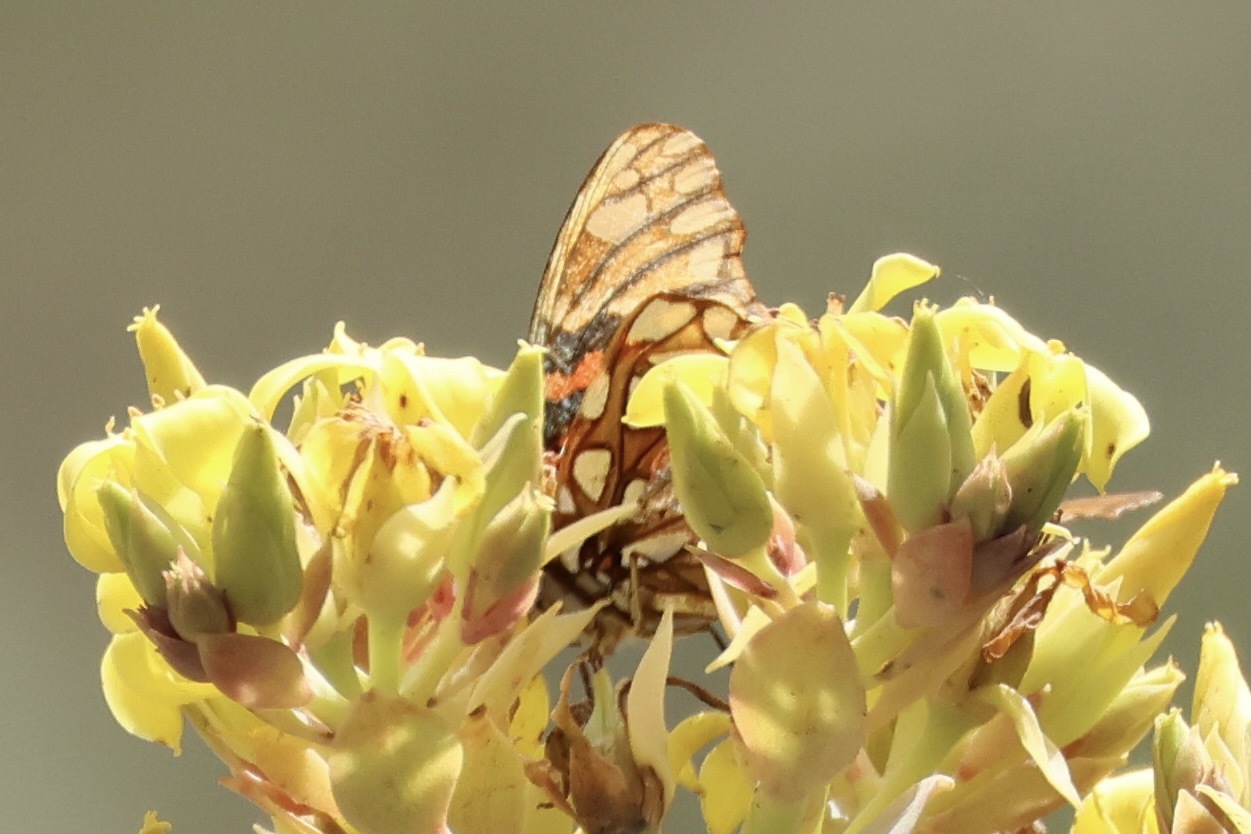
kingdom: Animalia
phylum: Arthropoda
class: Insecta
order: Lepidoptera
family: Nymphalidae
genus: Dione
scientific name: Dione moneta
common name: Mexican silverspot
